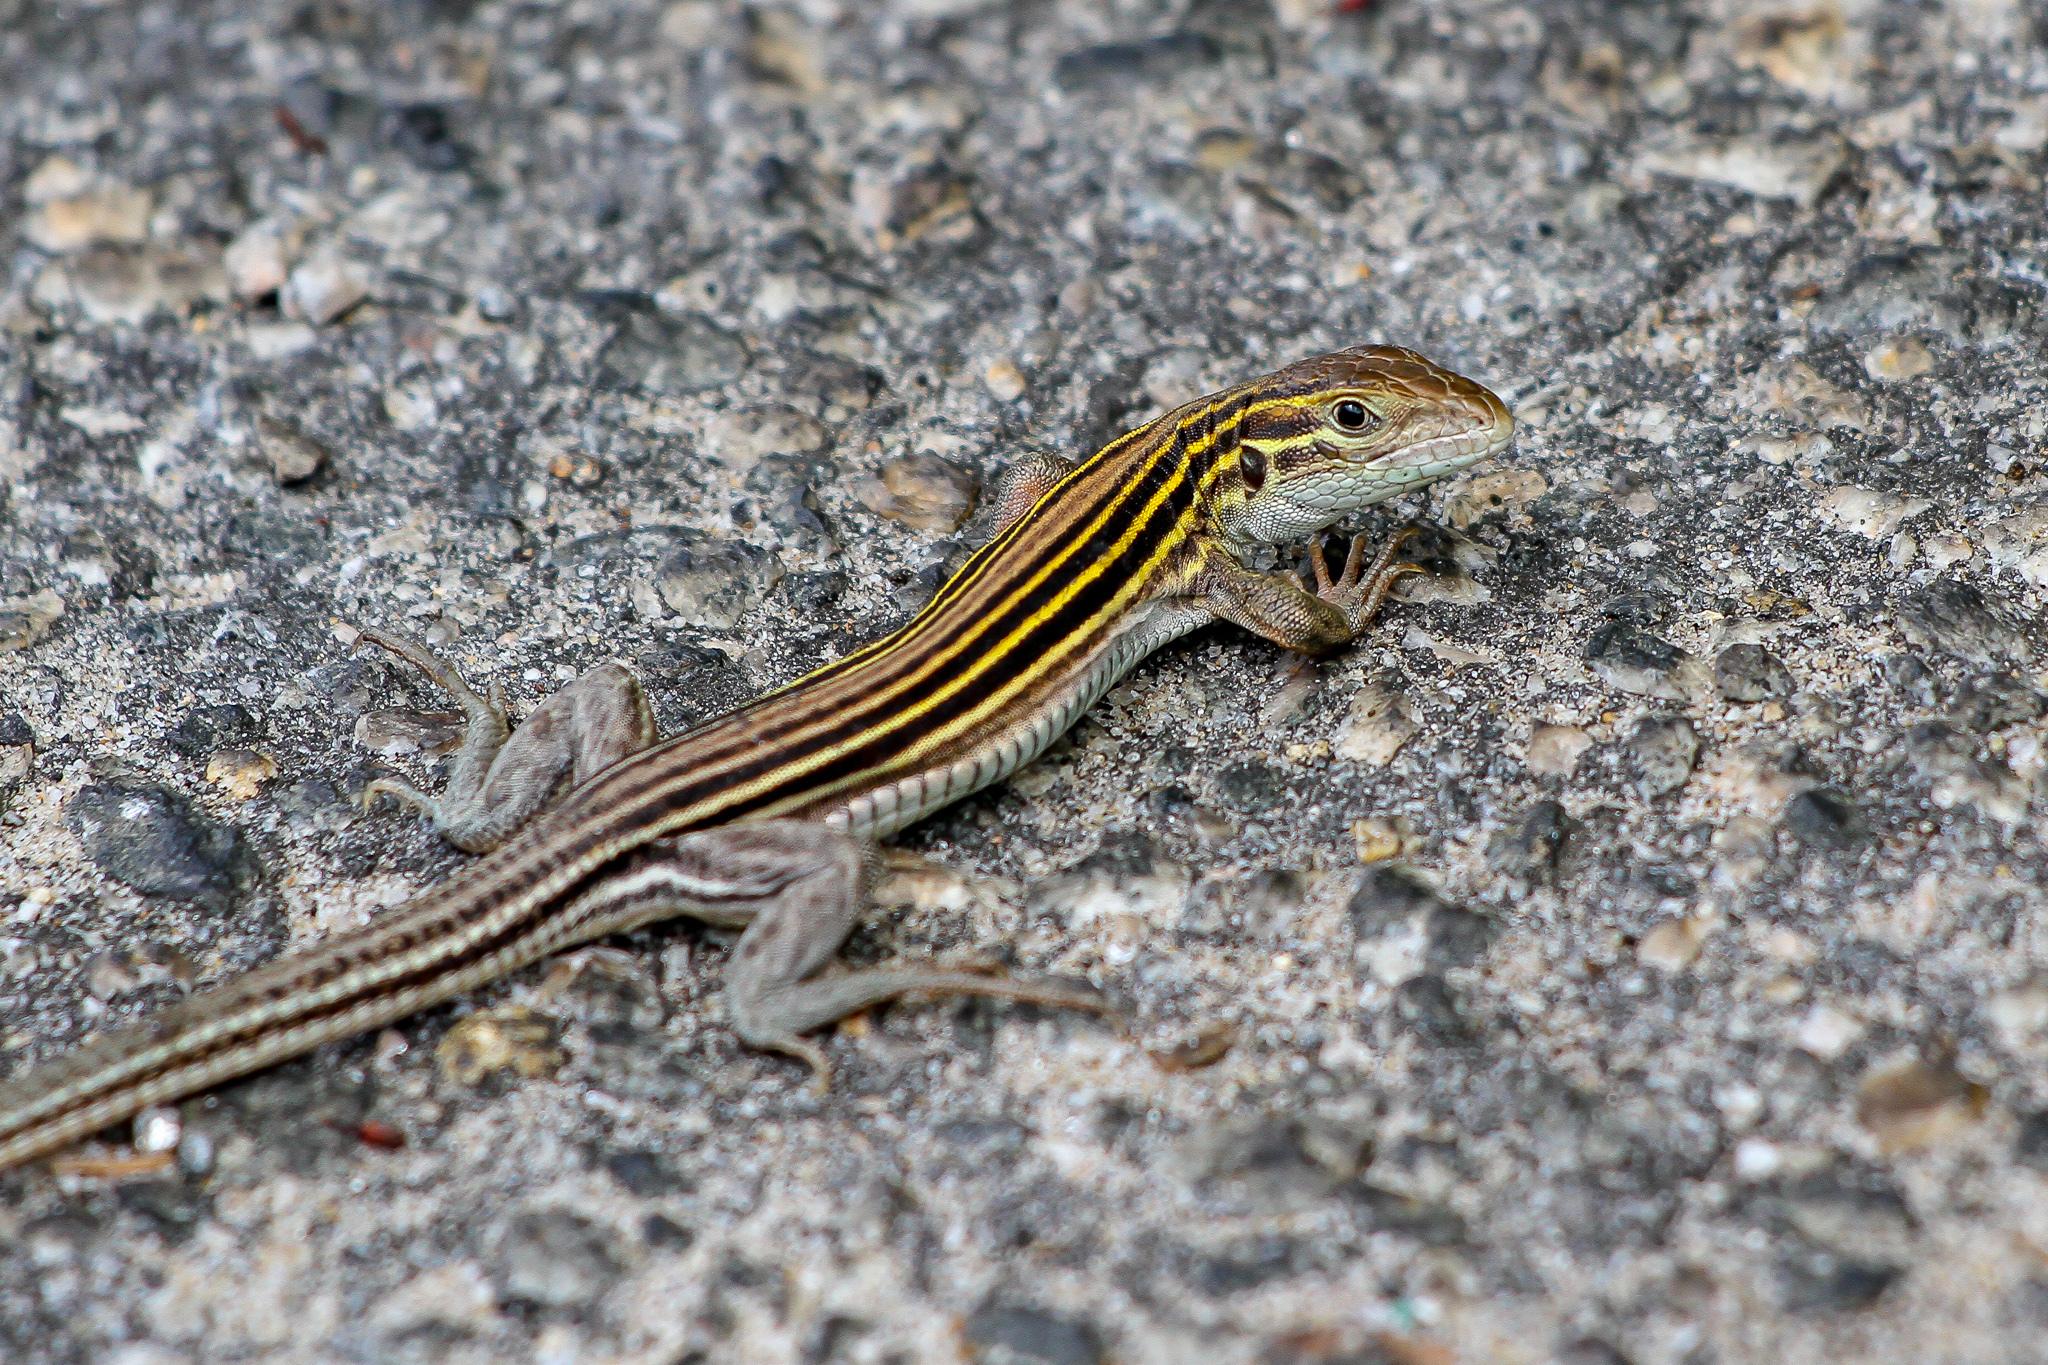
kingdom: Animalia
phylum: Chordata
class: Squamata
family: Teiidae
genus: Aspidoscelis
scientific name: Aspidoscelis sexlineatus
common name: Six-lined racerunner
